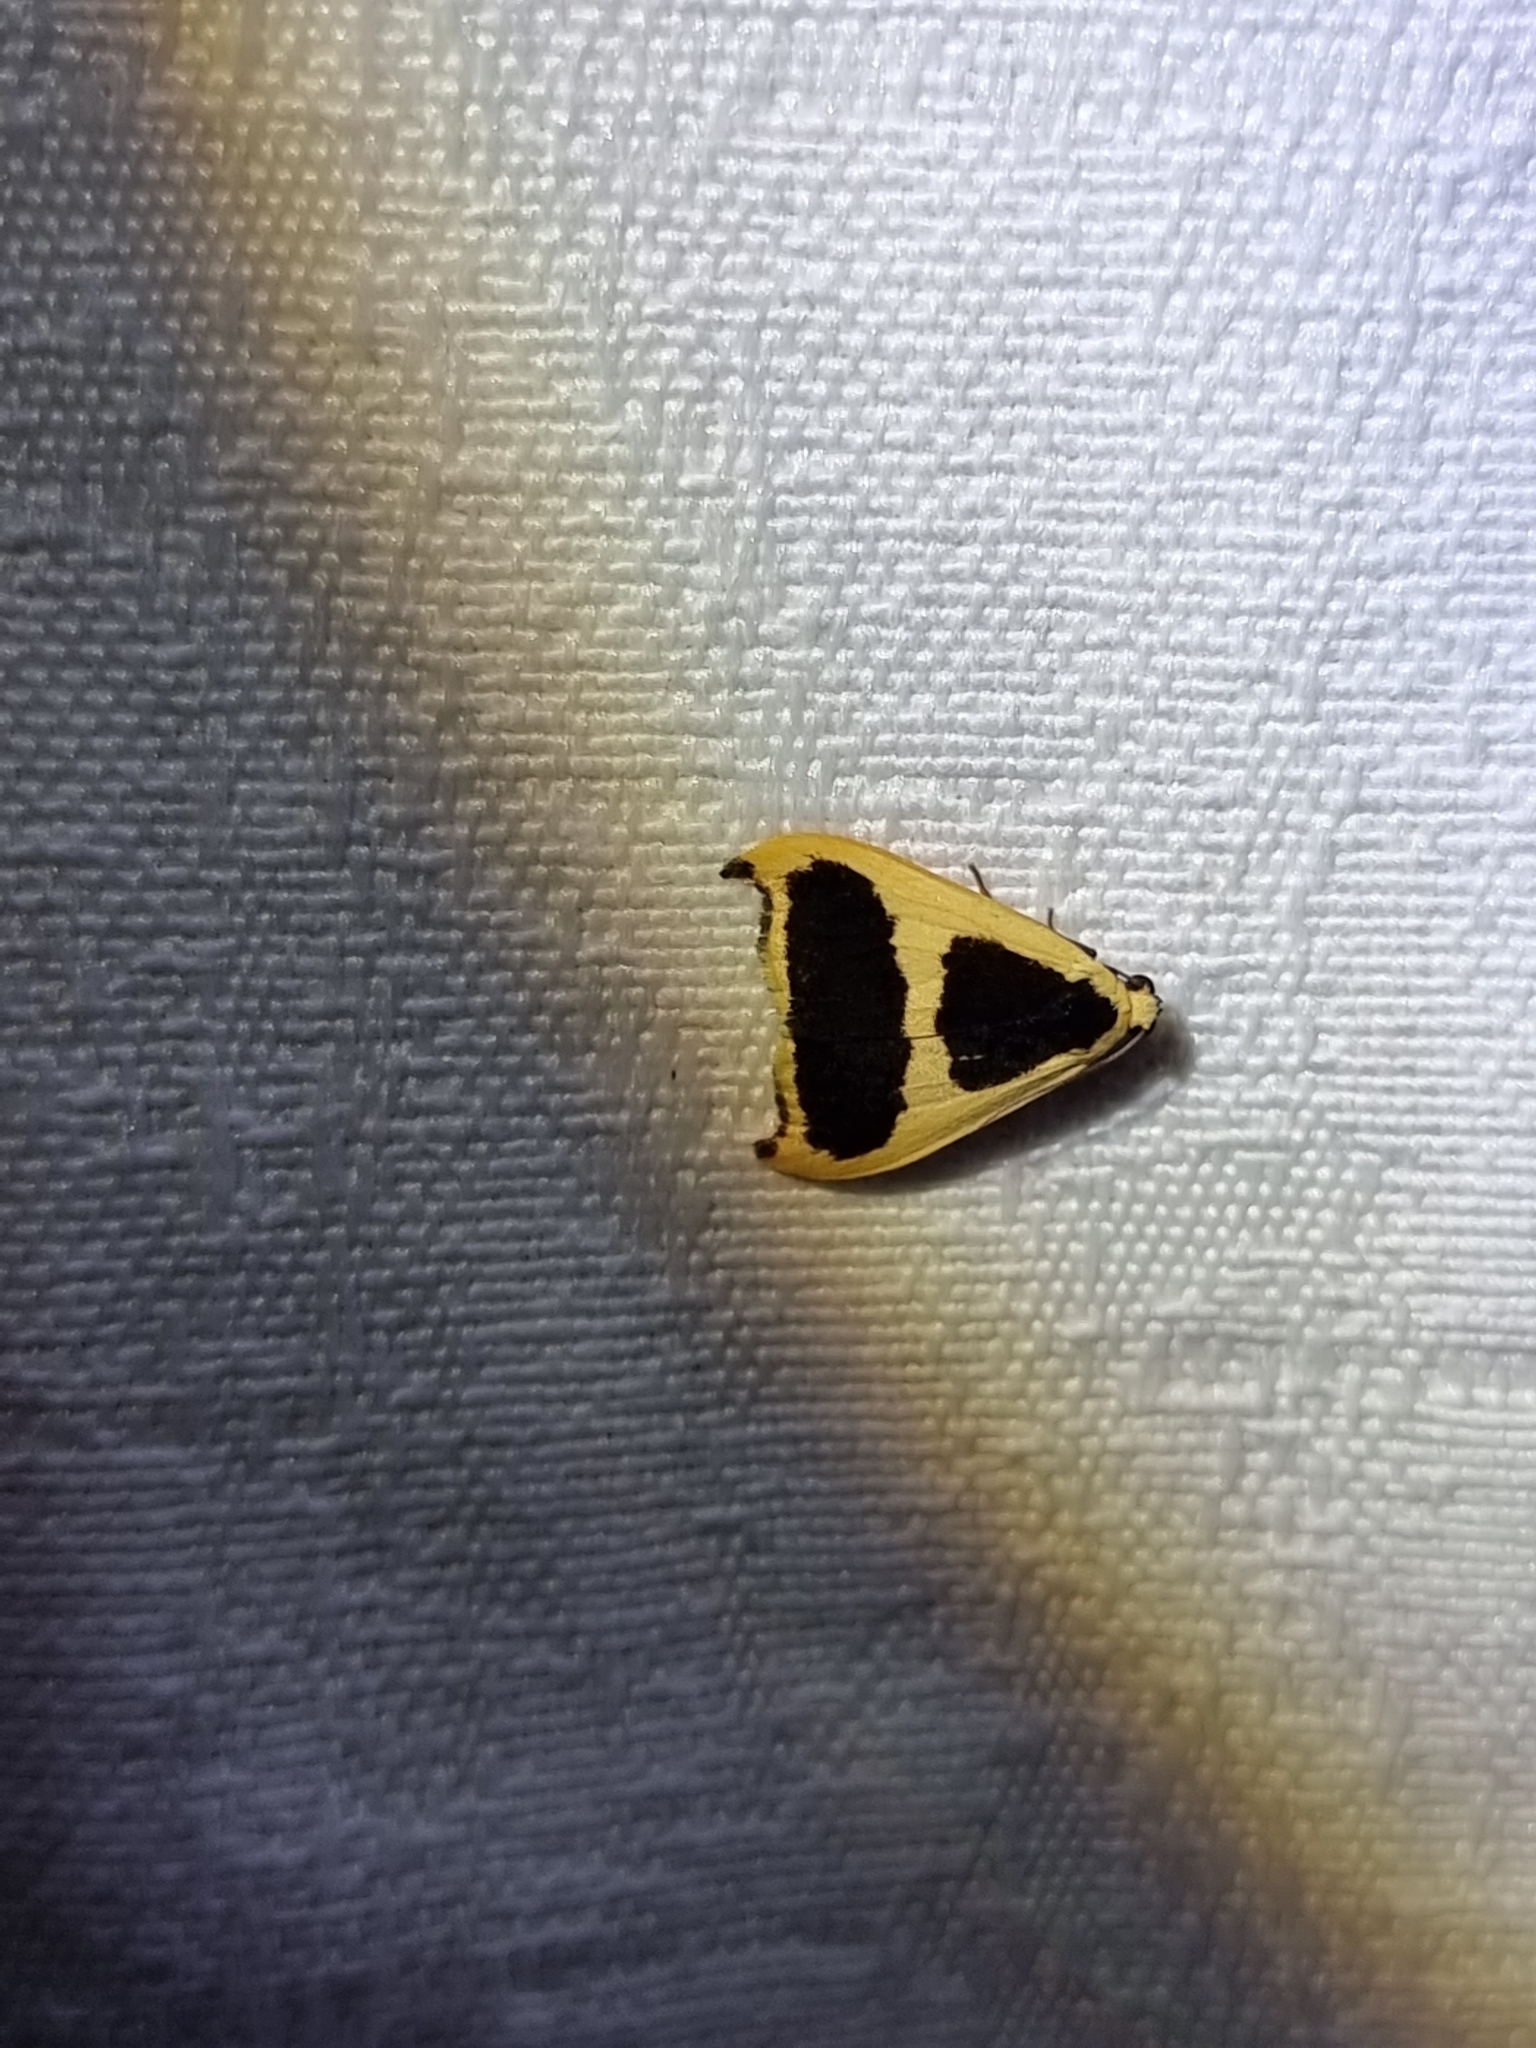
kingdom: Animalia
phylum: Arthropoda
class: Insecta
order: Lepidoptera
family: Erebidae
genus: Termessa
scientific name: Termessa conographa
